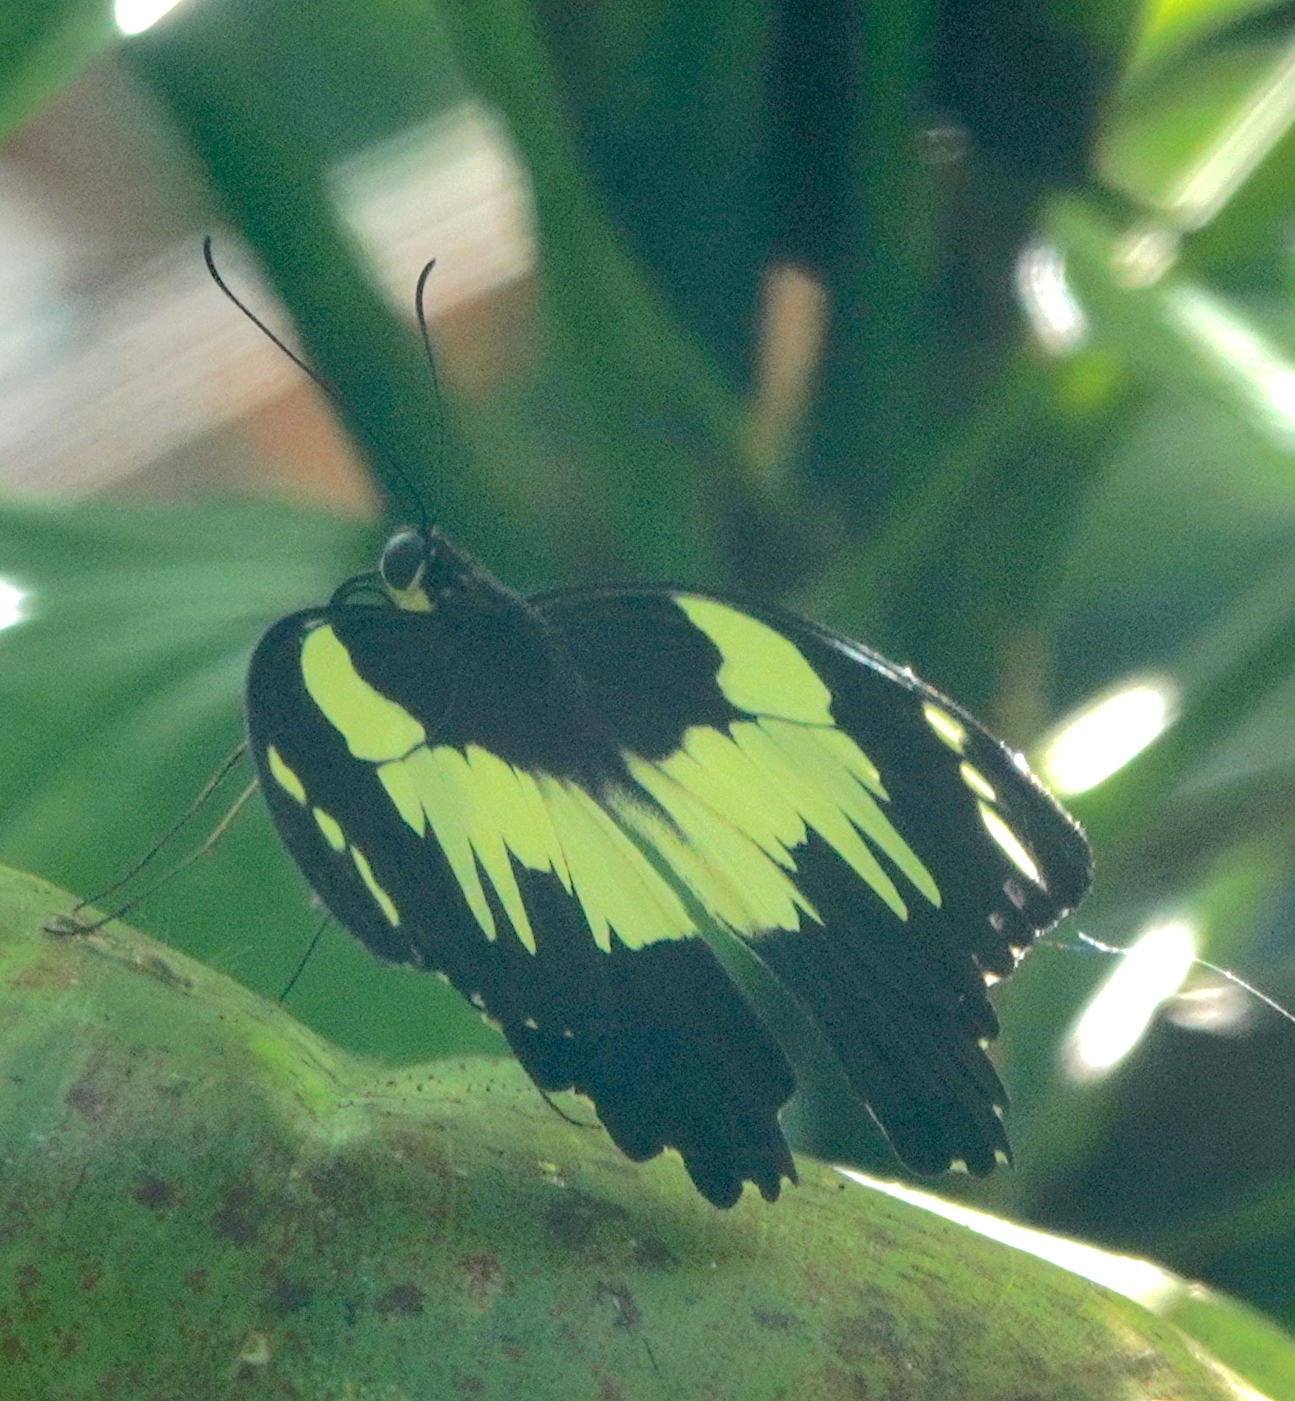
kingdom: Animalia
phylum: Arthropoda
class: Insecta
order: Lepidoptera
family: Papilionidae
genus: Papilio
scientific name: Papilio euchenor
